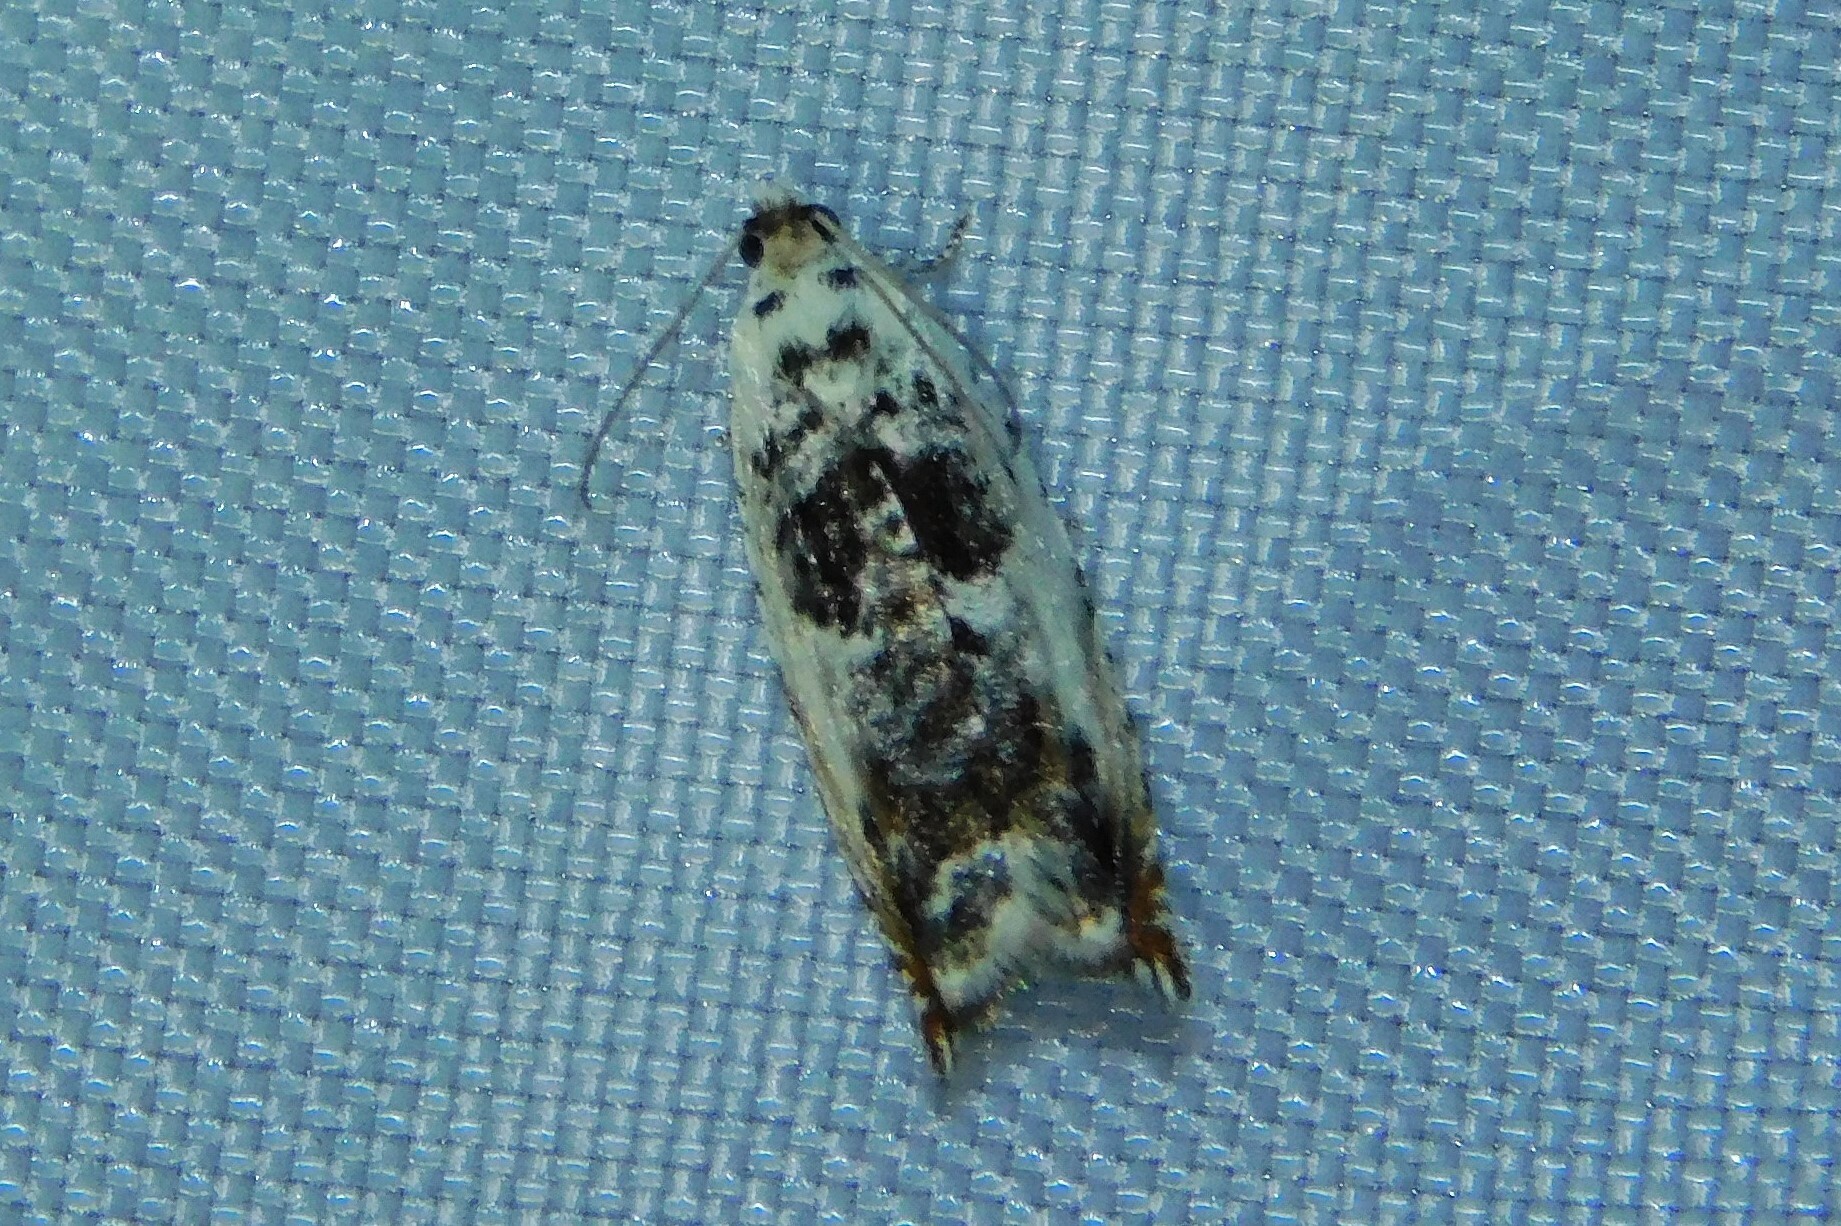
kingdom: Animalia
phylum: Arthropoda
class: Insecta
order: Lepidoptera
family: Tortricidae
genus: Ancylis
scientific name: Ancylis laetana
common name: Aspen roller
